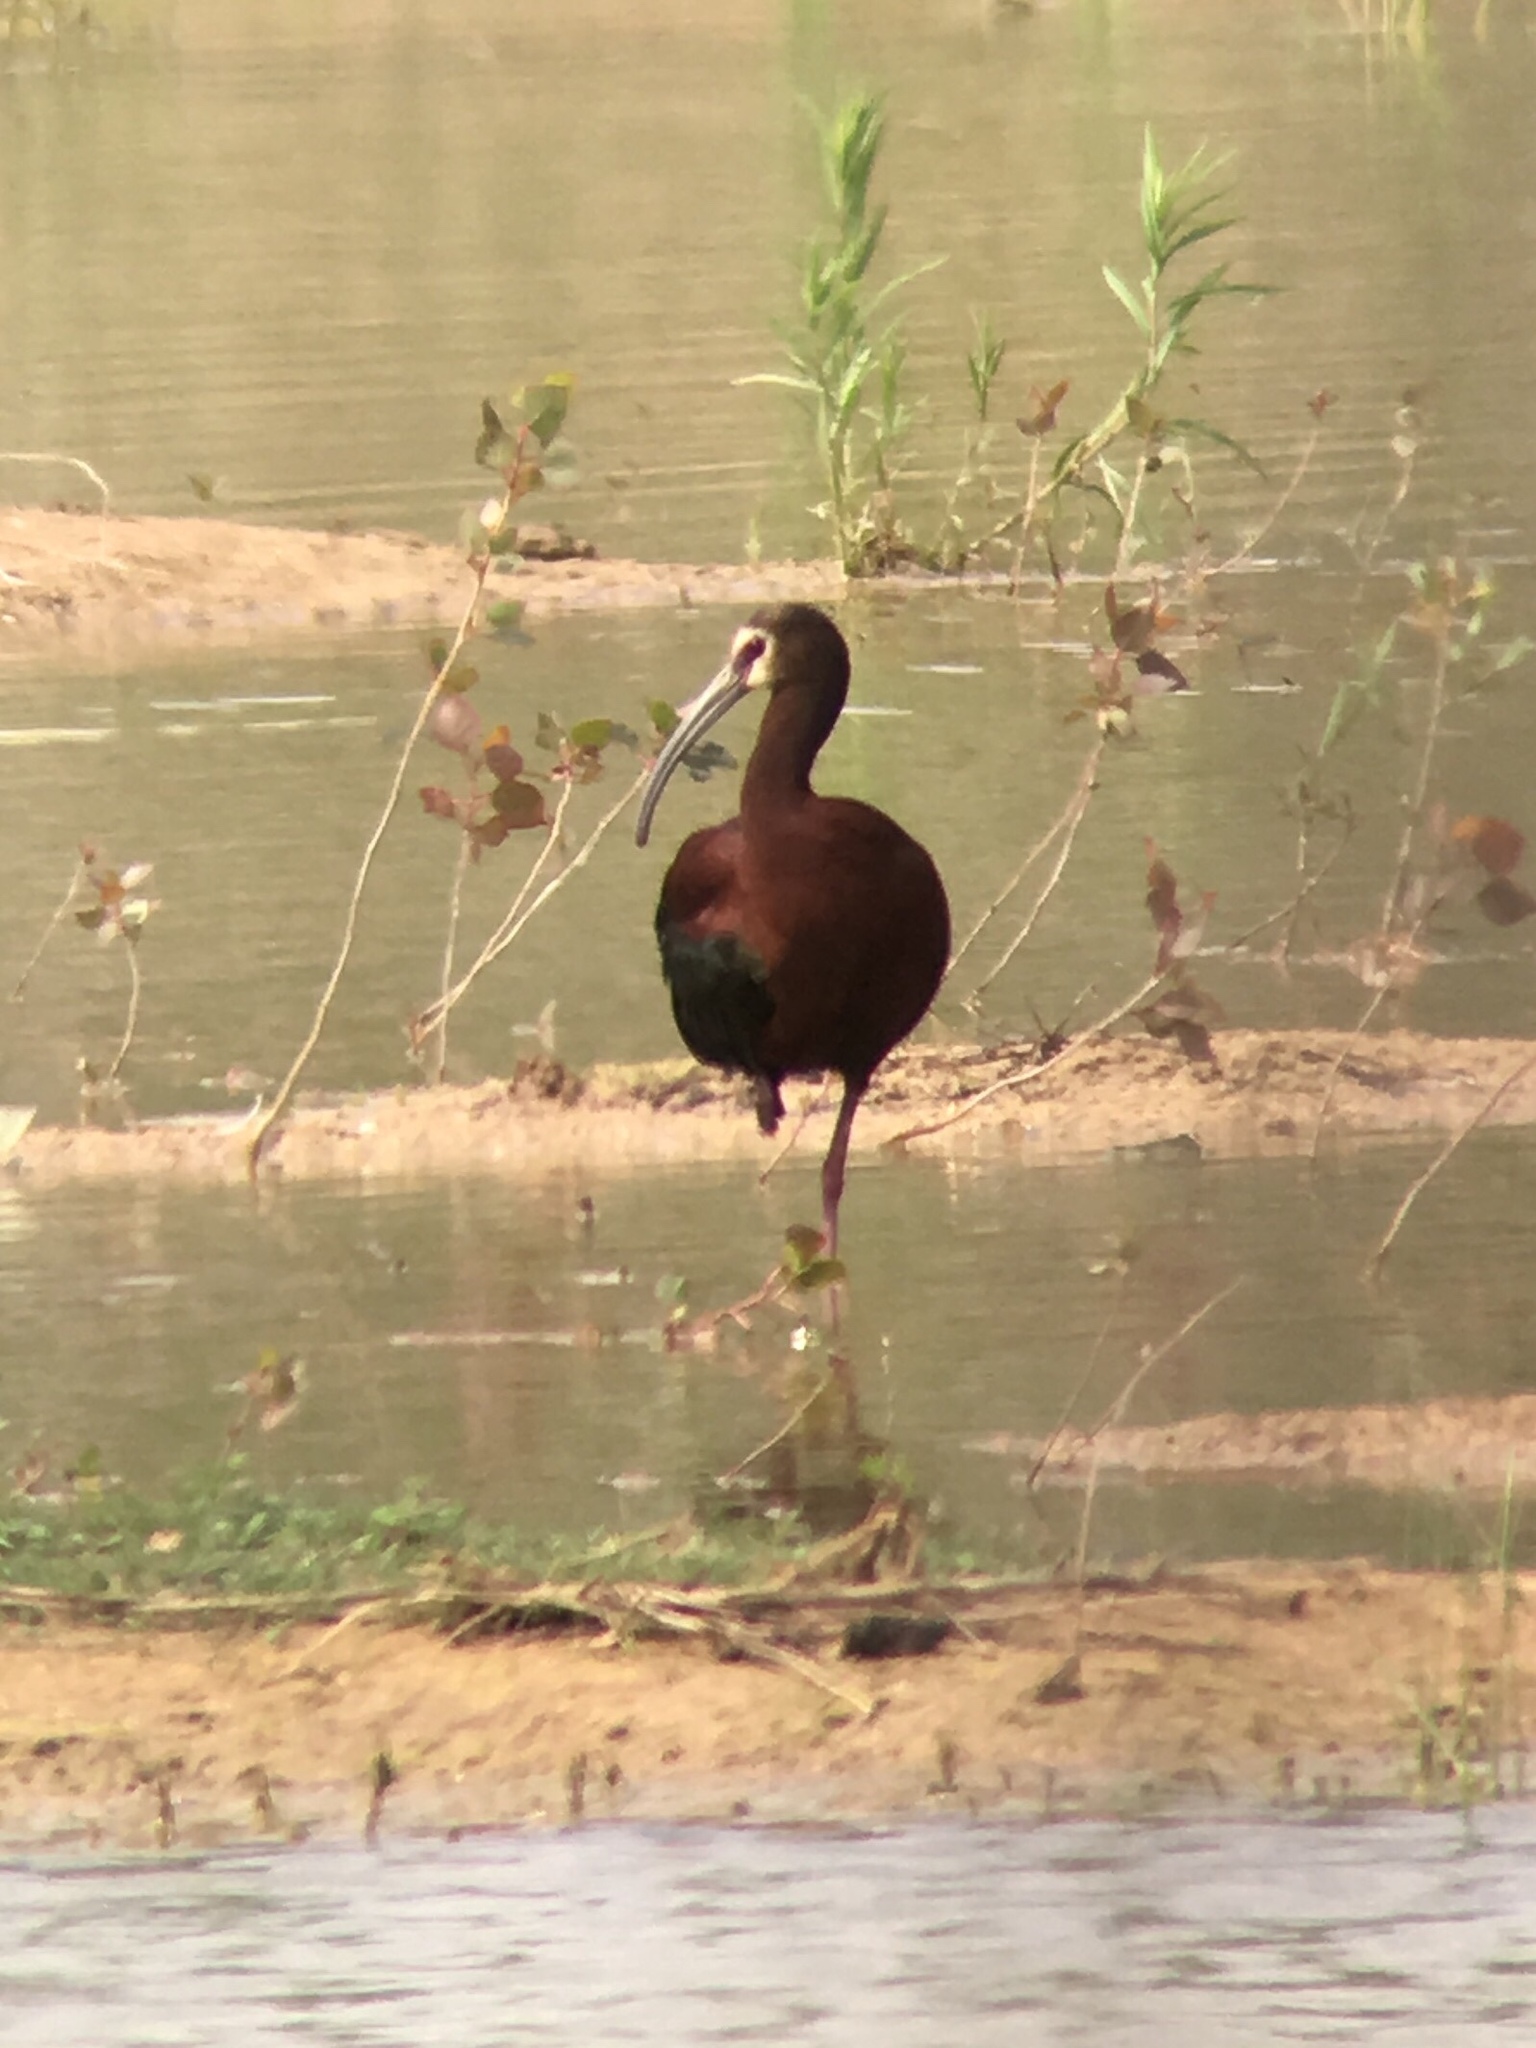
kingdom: Animalia
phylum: Chordata
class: Aves
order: Pelecaniformes
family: Threskiornithidae
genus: Plegadis
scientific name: Plegadis chihi
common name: White-faced ibis
